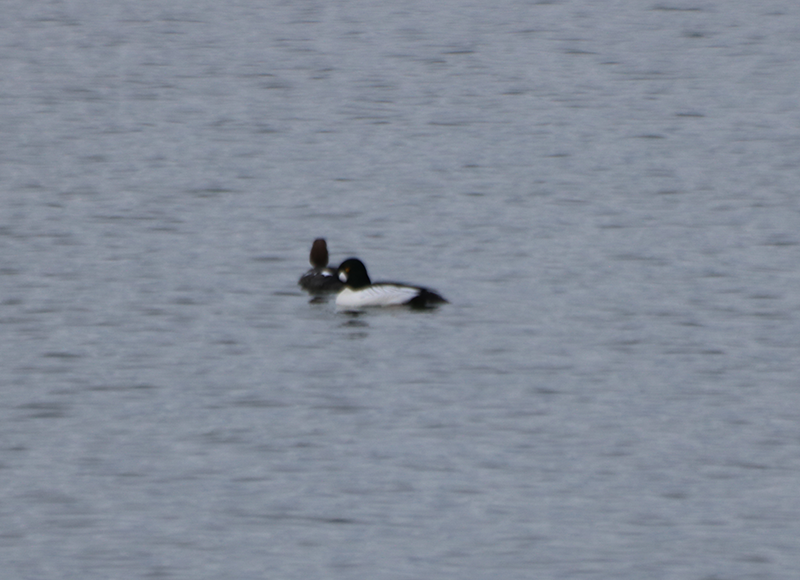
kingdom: Animalia
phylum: Chordata
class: Aves
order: Anseriformes
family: Anatidae
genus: Bucephala
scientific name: Bucephala clangula
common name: Common goldeneye
